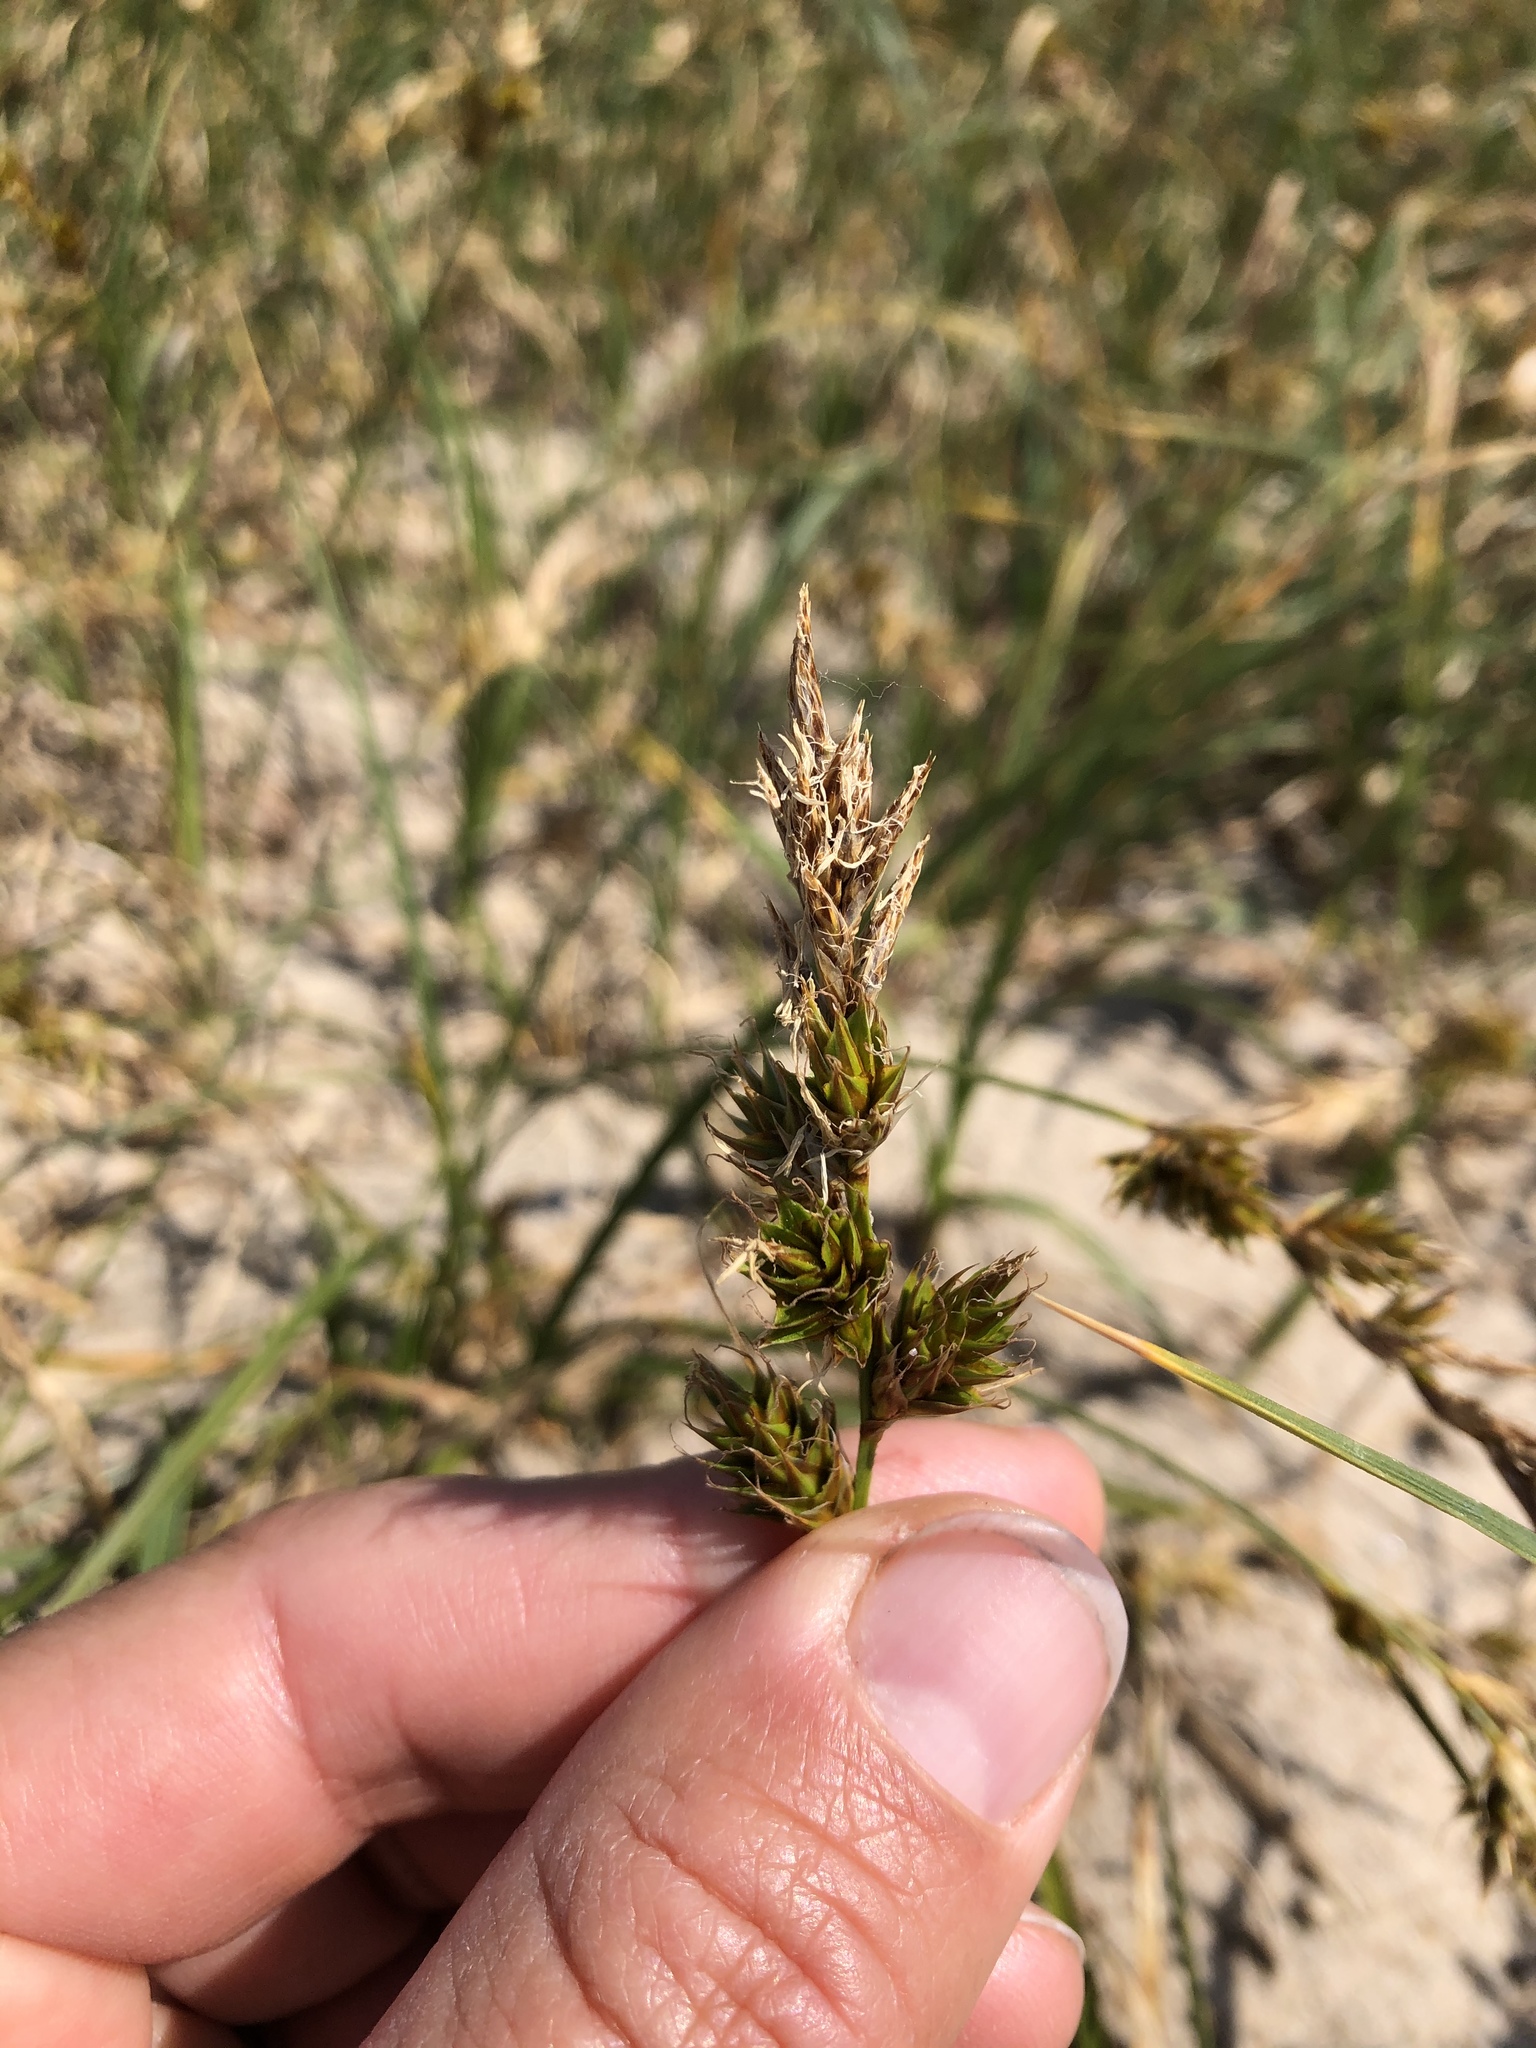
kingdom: Plantae
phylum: Tracheophyta
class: Liliopsida
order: Poales
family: Cyperaceae
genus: Carex
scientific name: Carex arenaria
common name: Sand sedge
